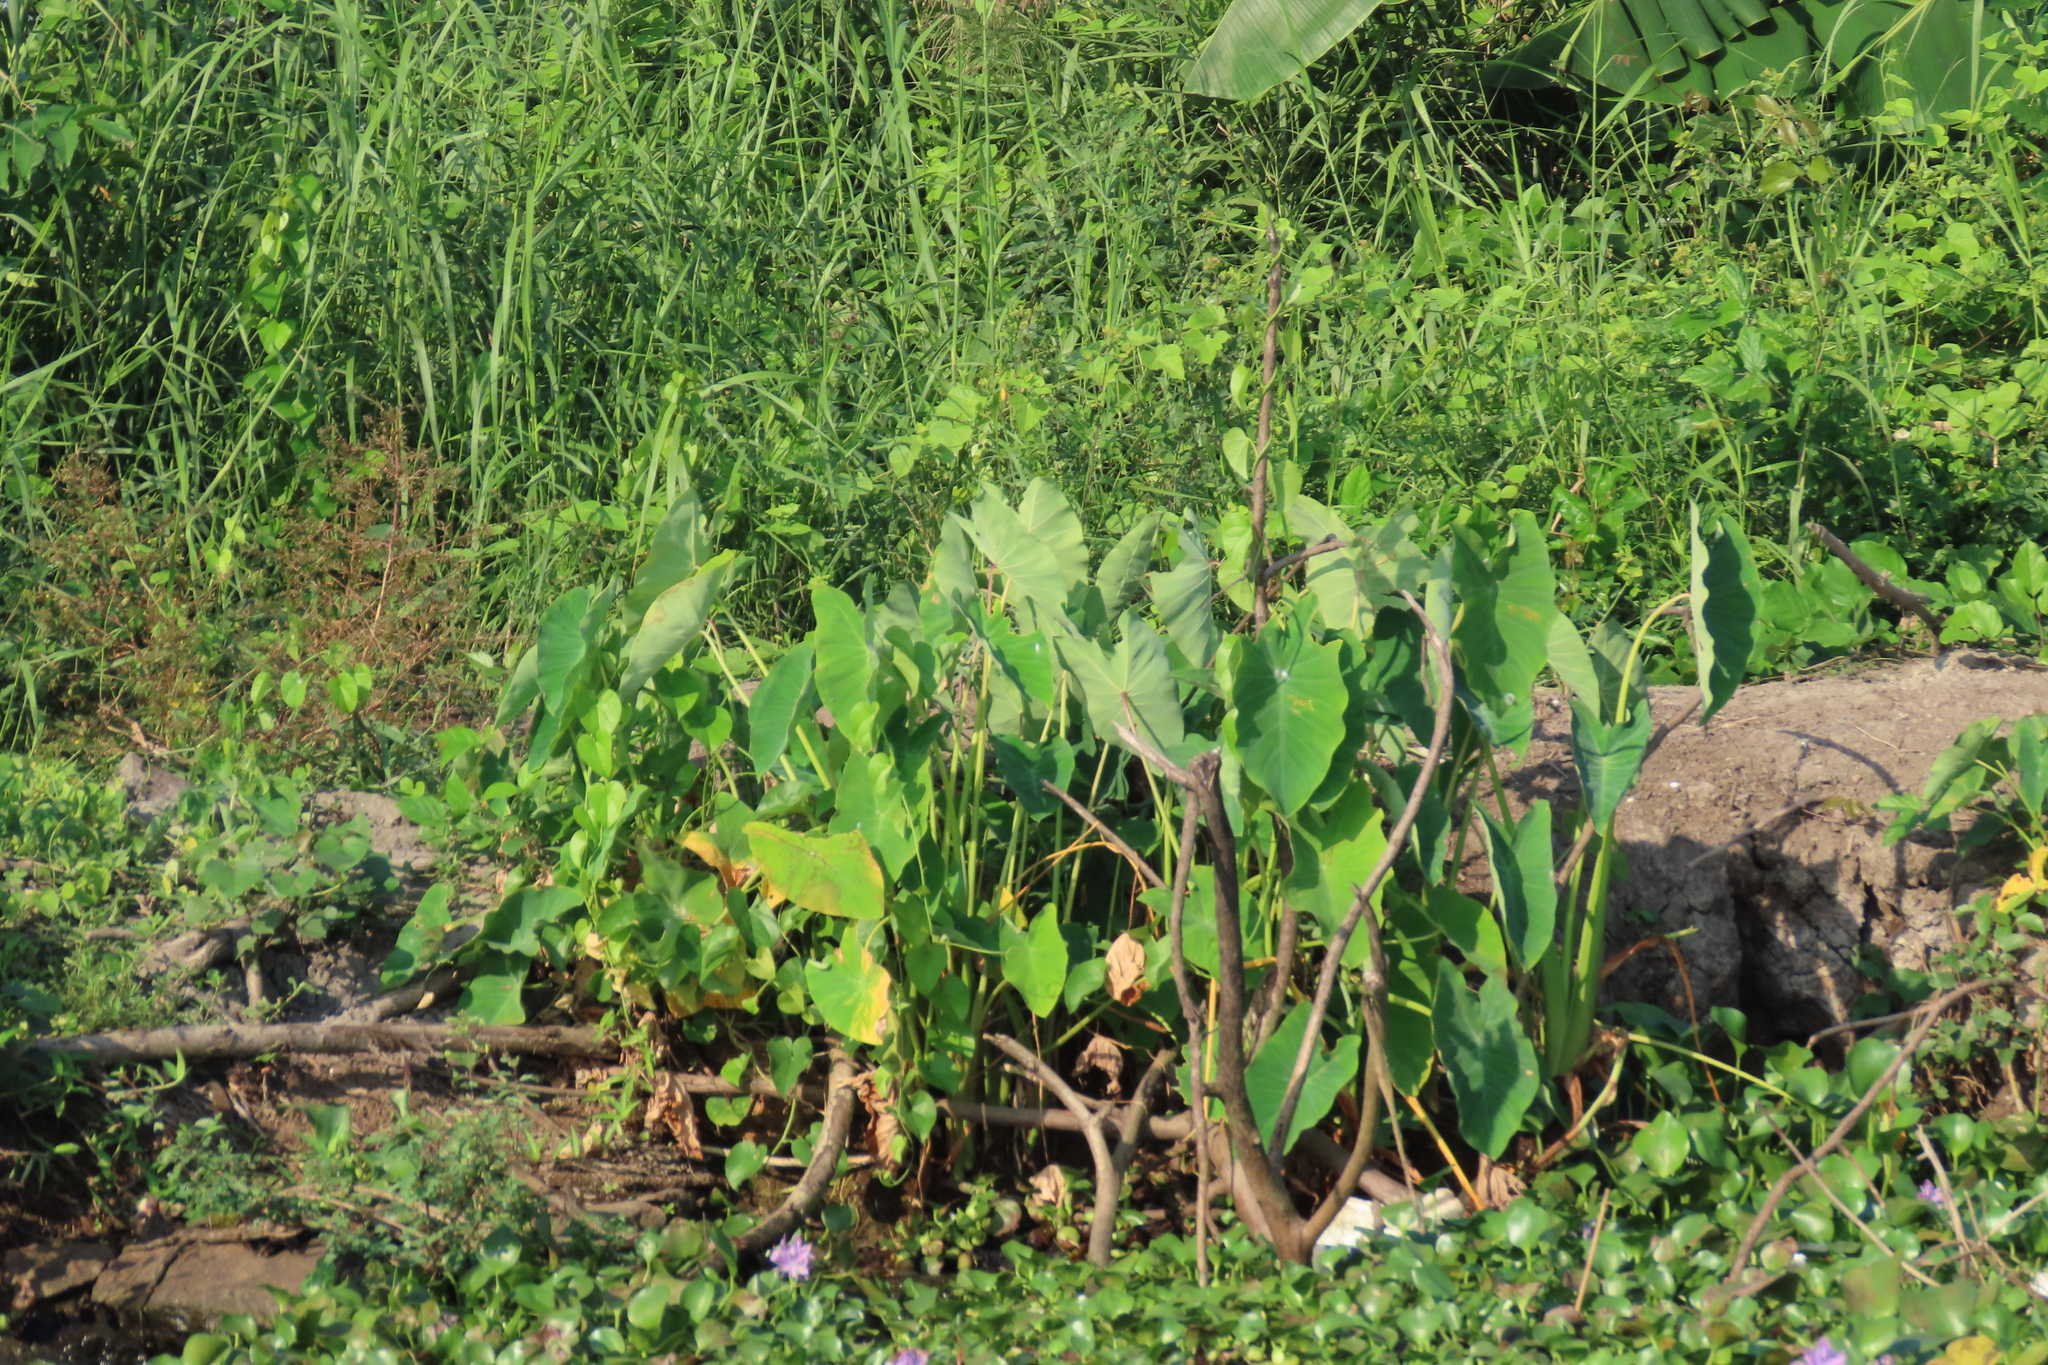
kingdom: Plantae
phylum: Tracheophyta
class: Liliopsida
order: Alismatales
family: Araceae
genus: Colocasia
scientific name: Colocasia esculenta
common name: Taro
